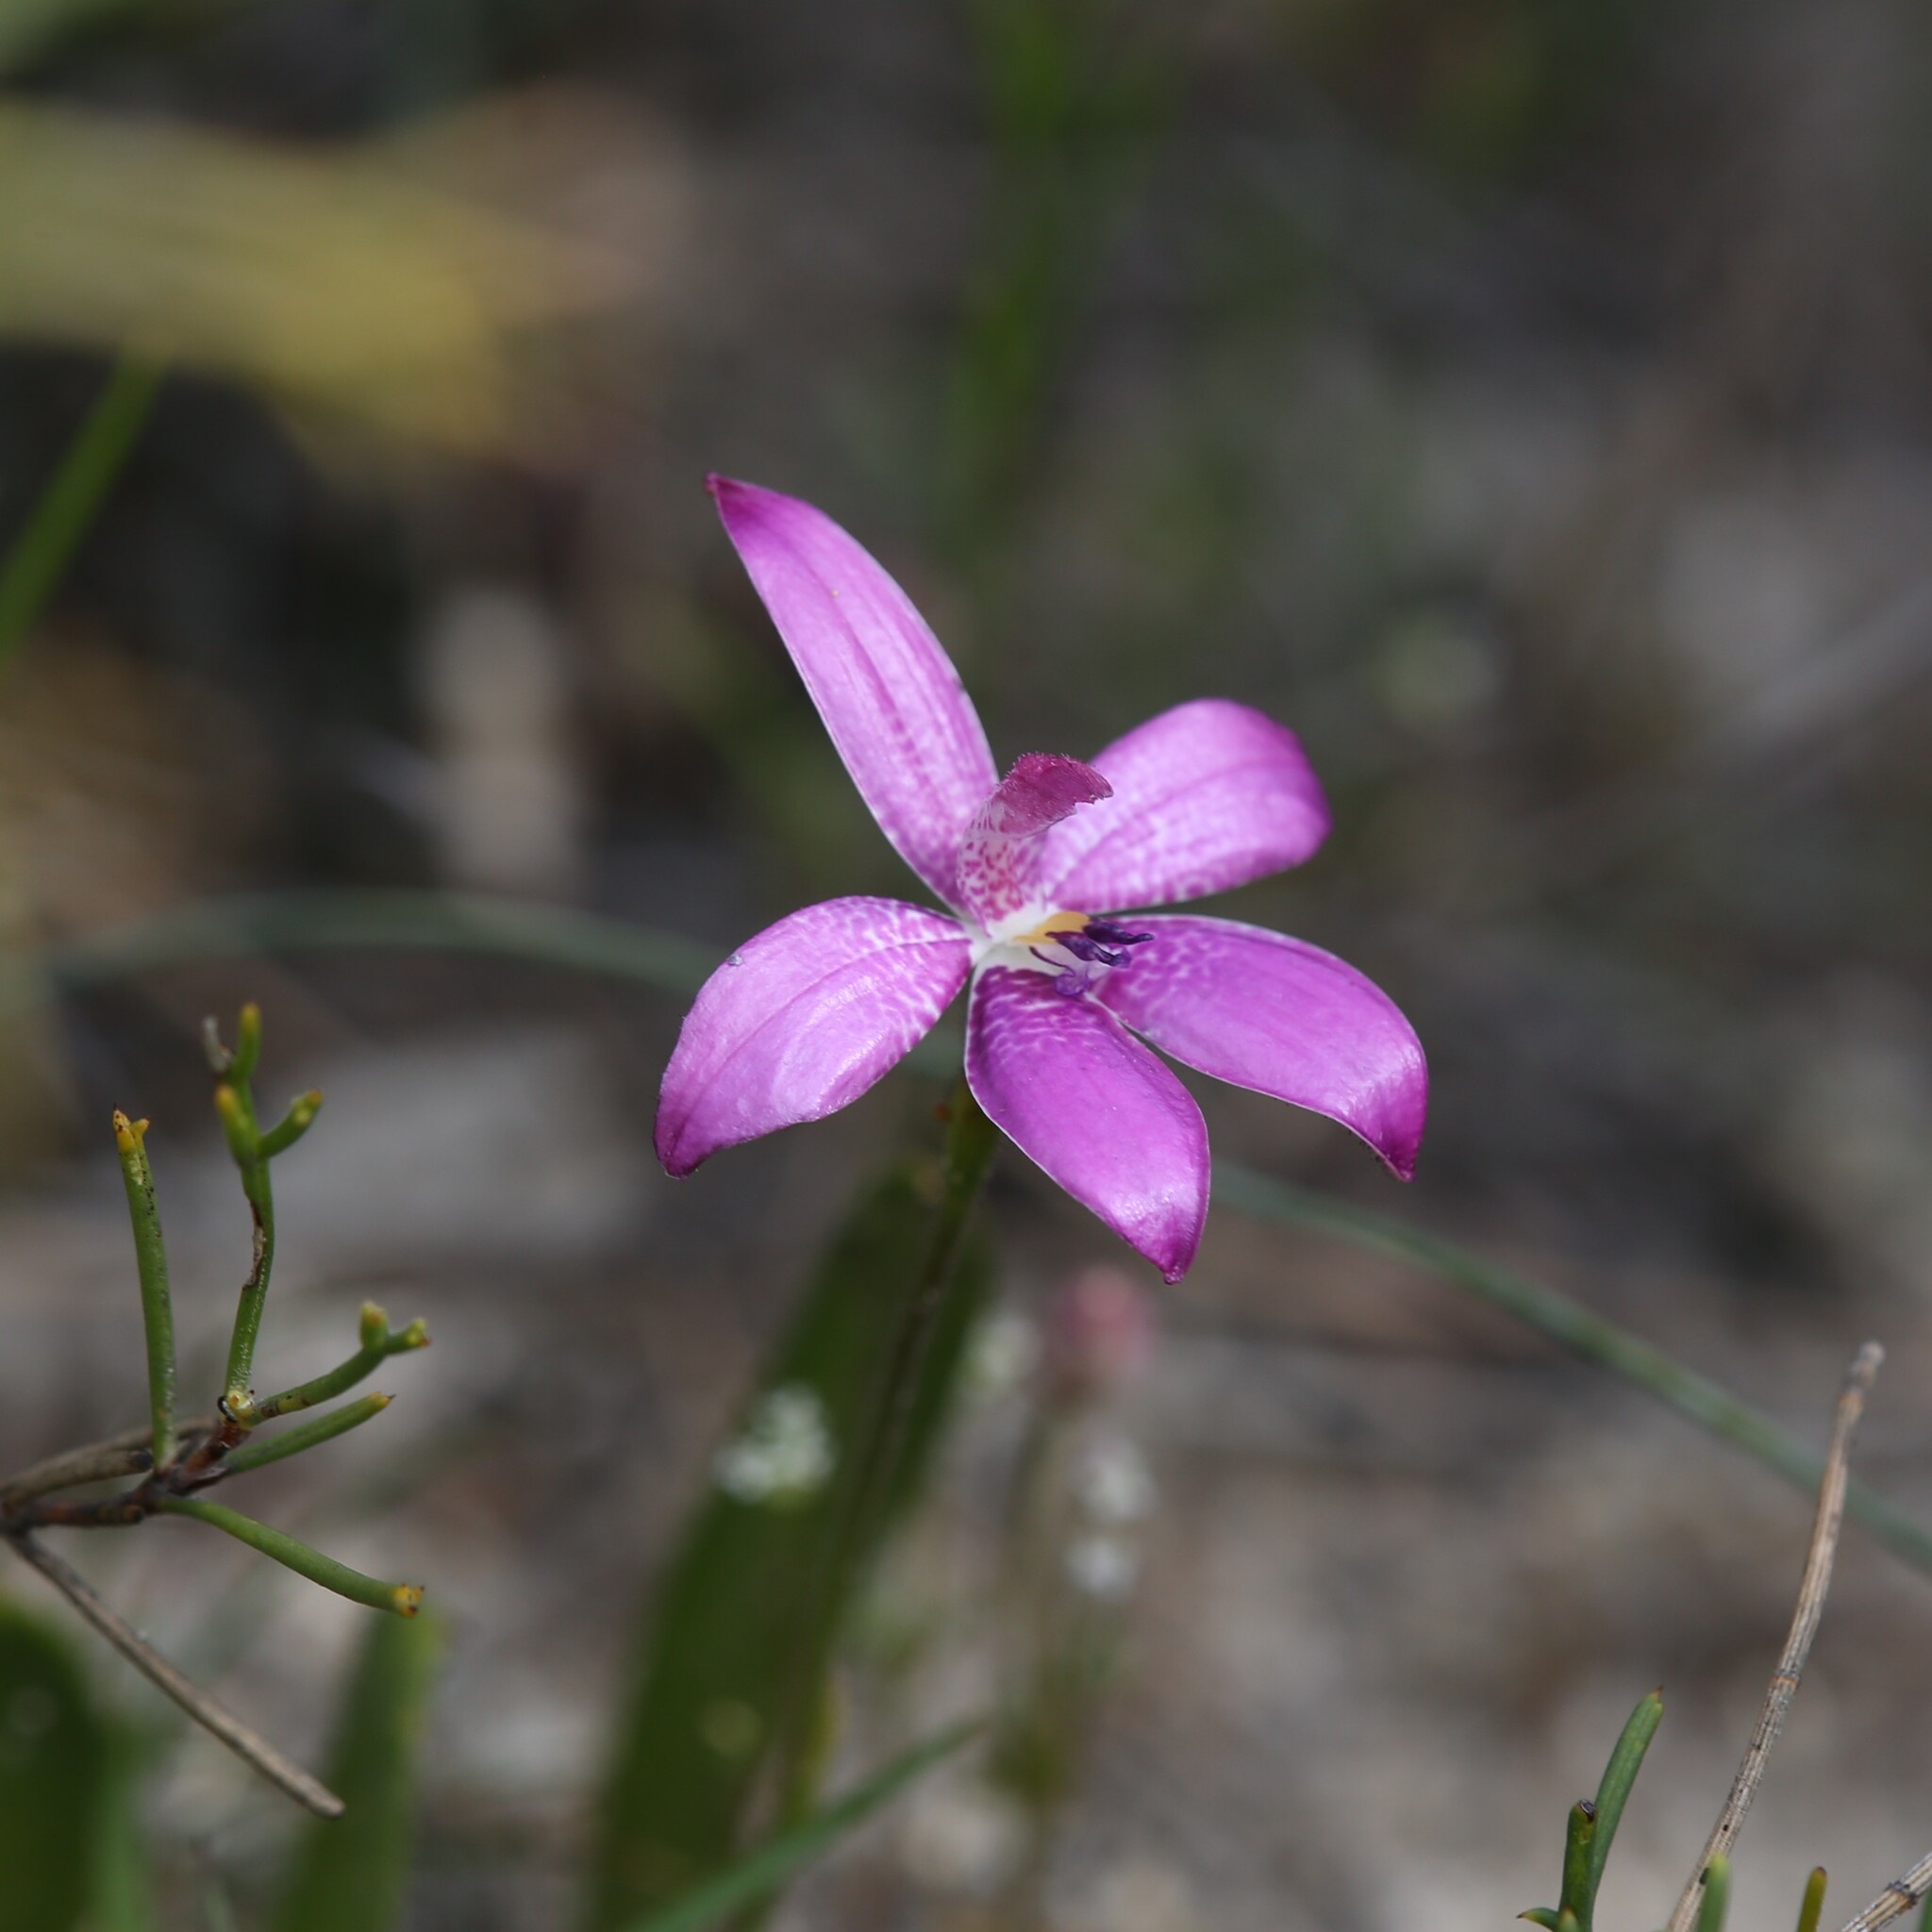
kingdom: Plantae
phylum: Tracheophyta
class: Liliopsida
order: Asparagales
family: Orchidaceae
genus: Caladenia
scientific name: Caladenia emarginata
